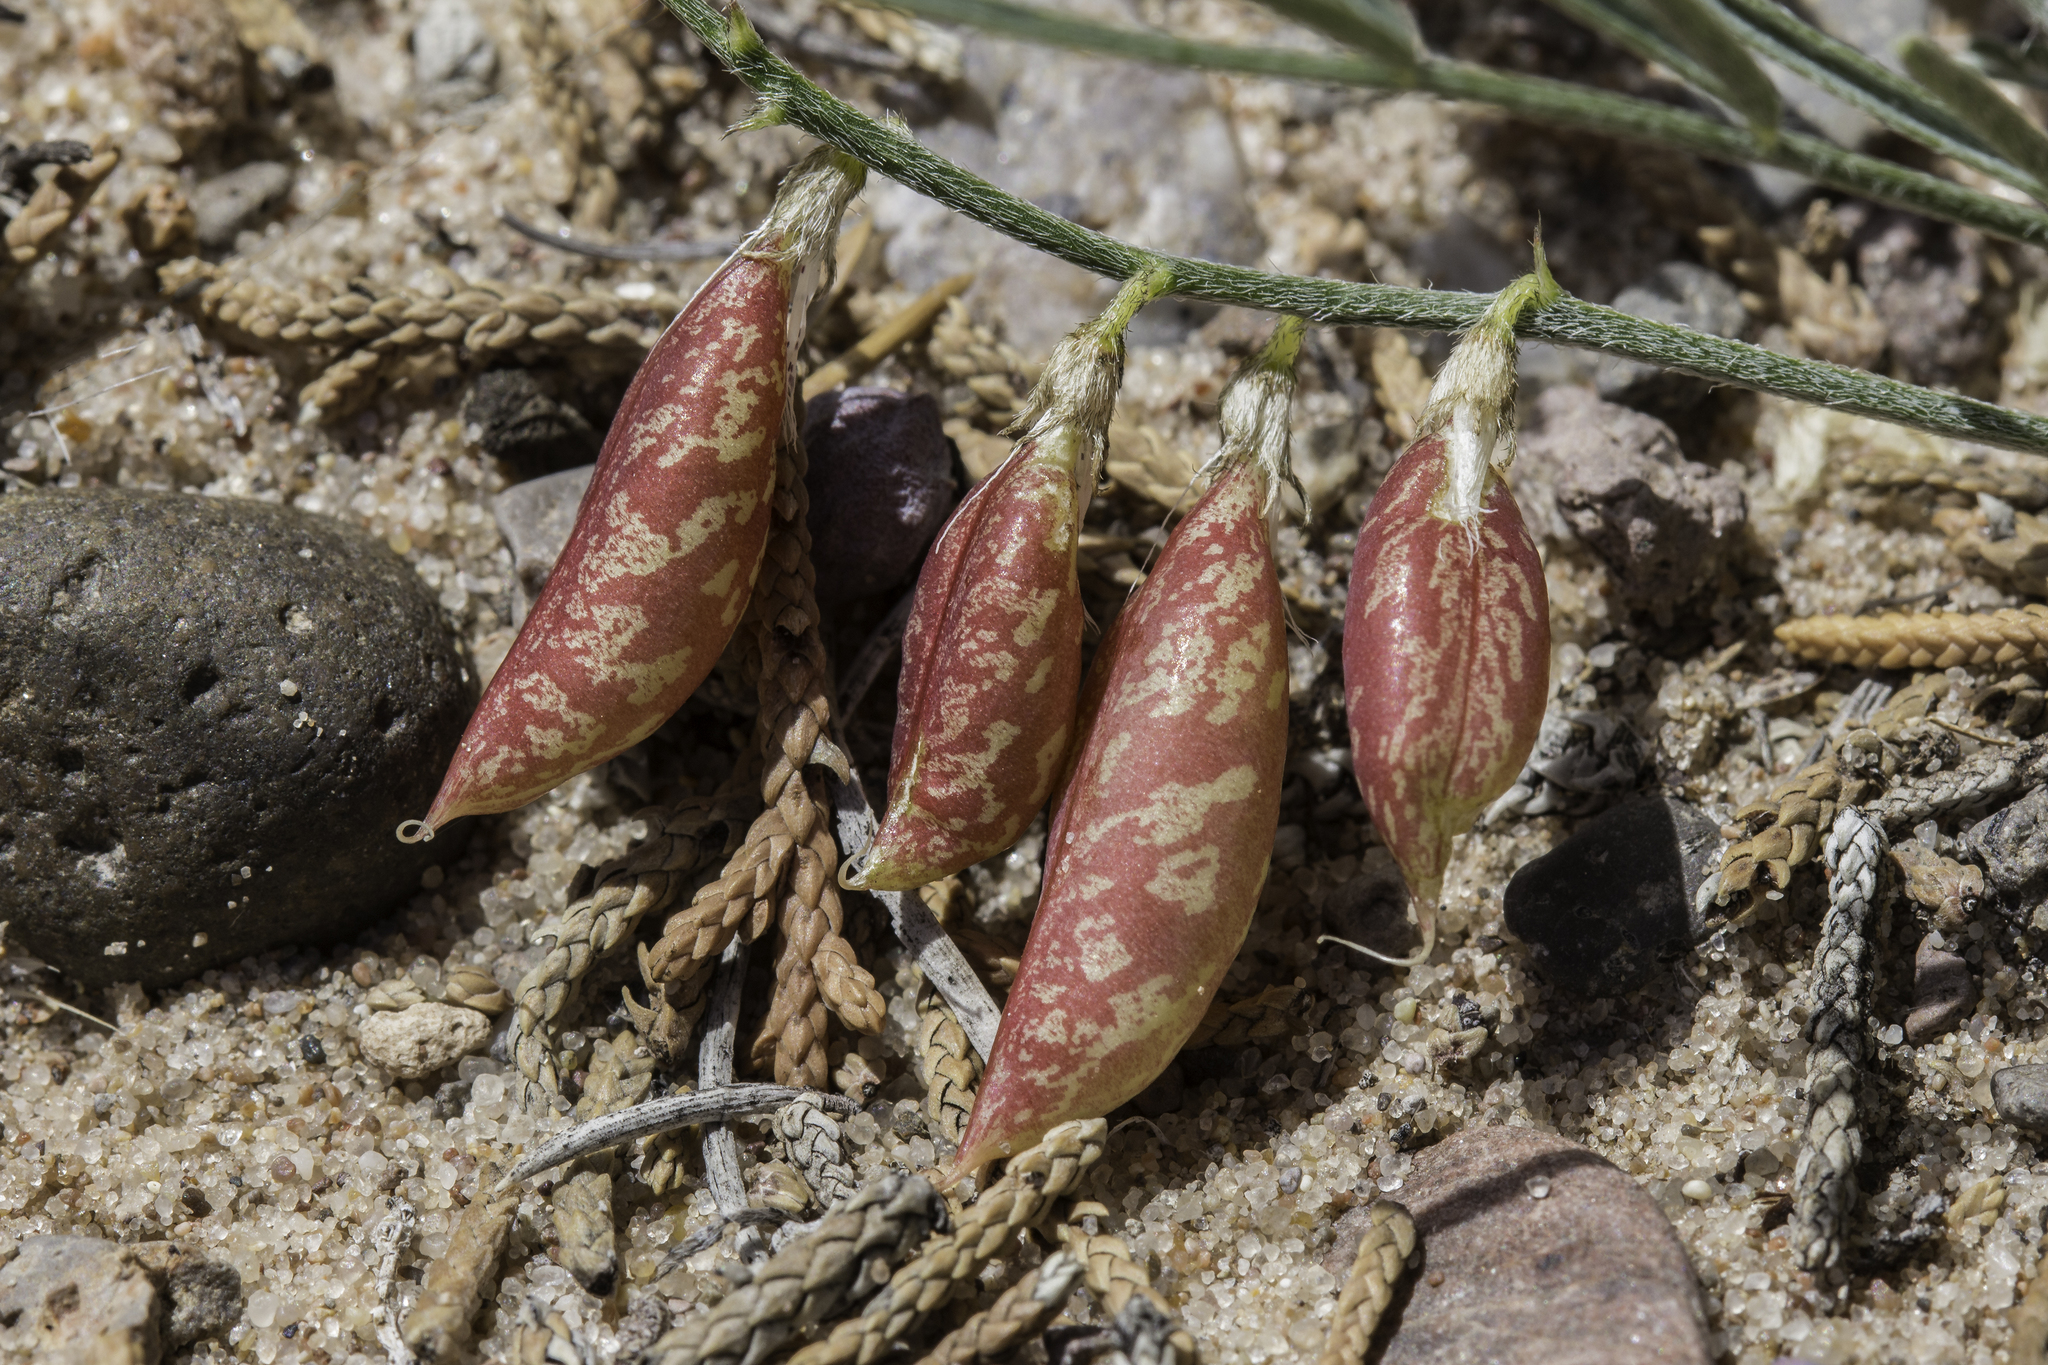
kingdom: Plantae
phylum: Tracheophyta
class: Magnoliopsida
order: Fabales
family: Fabaceae
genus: Astragalus
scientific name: Astragalus ceramicus
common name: Painted milk-vetch
